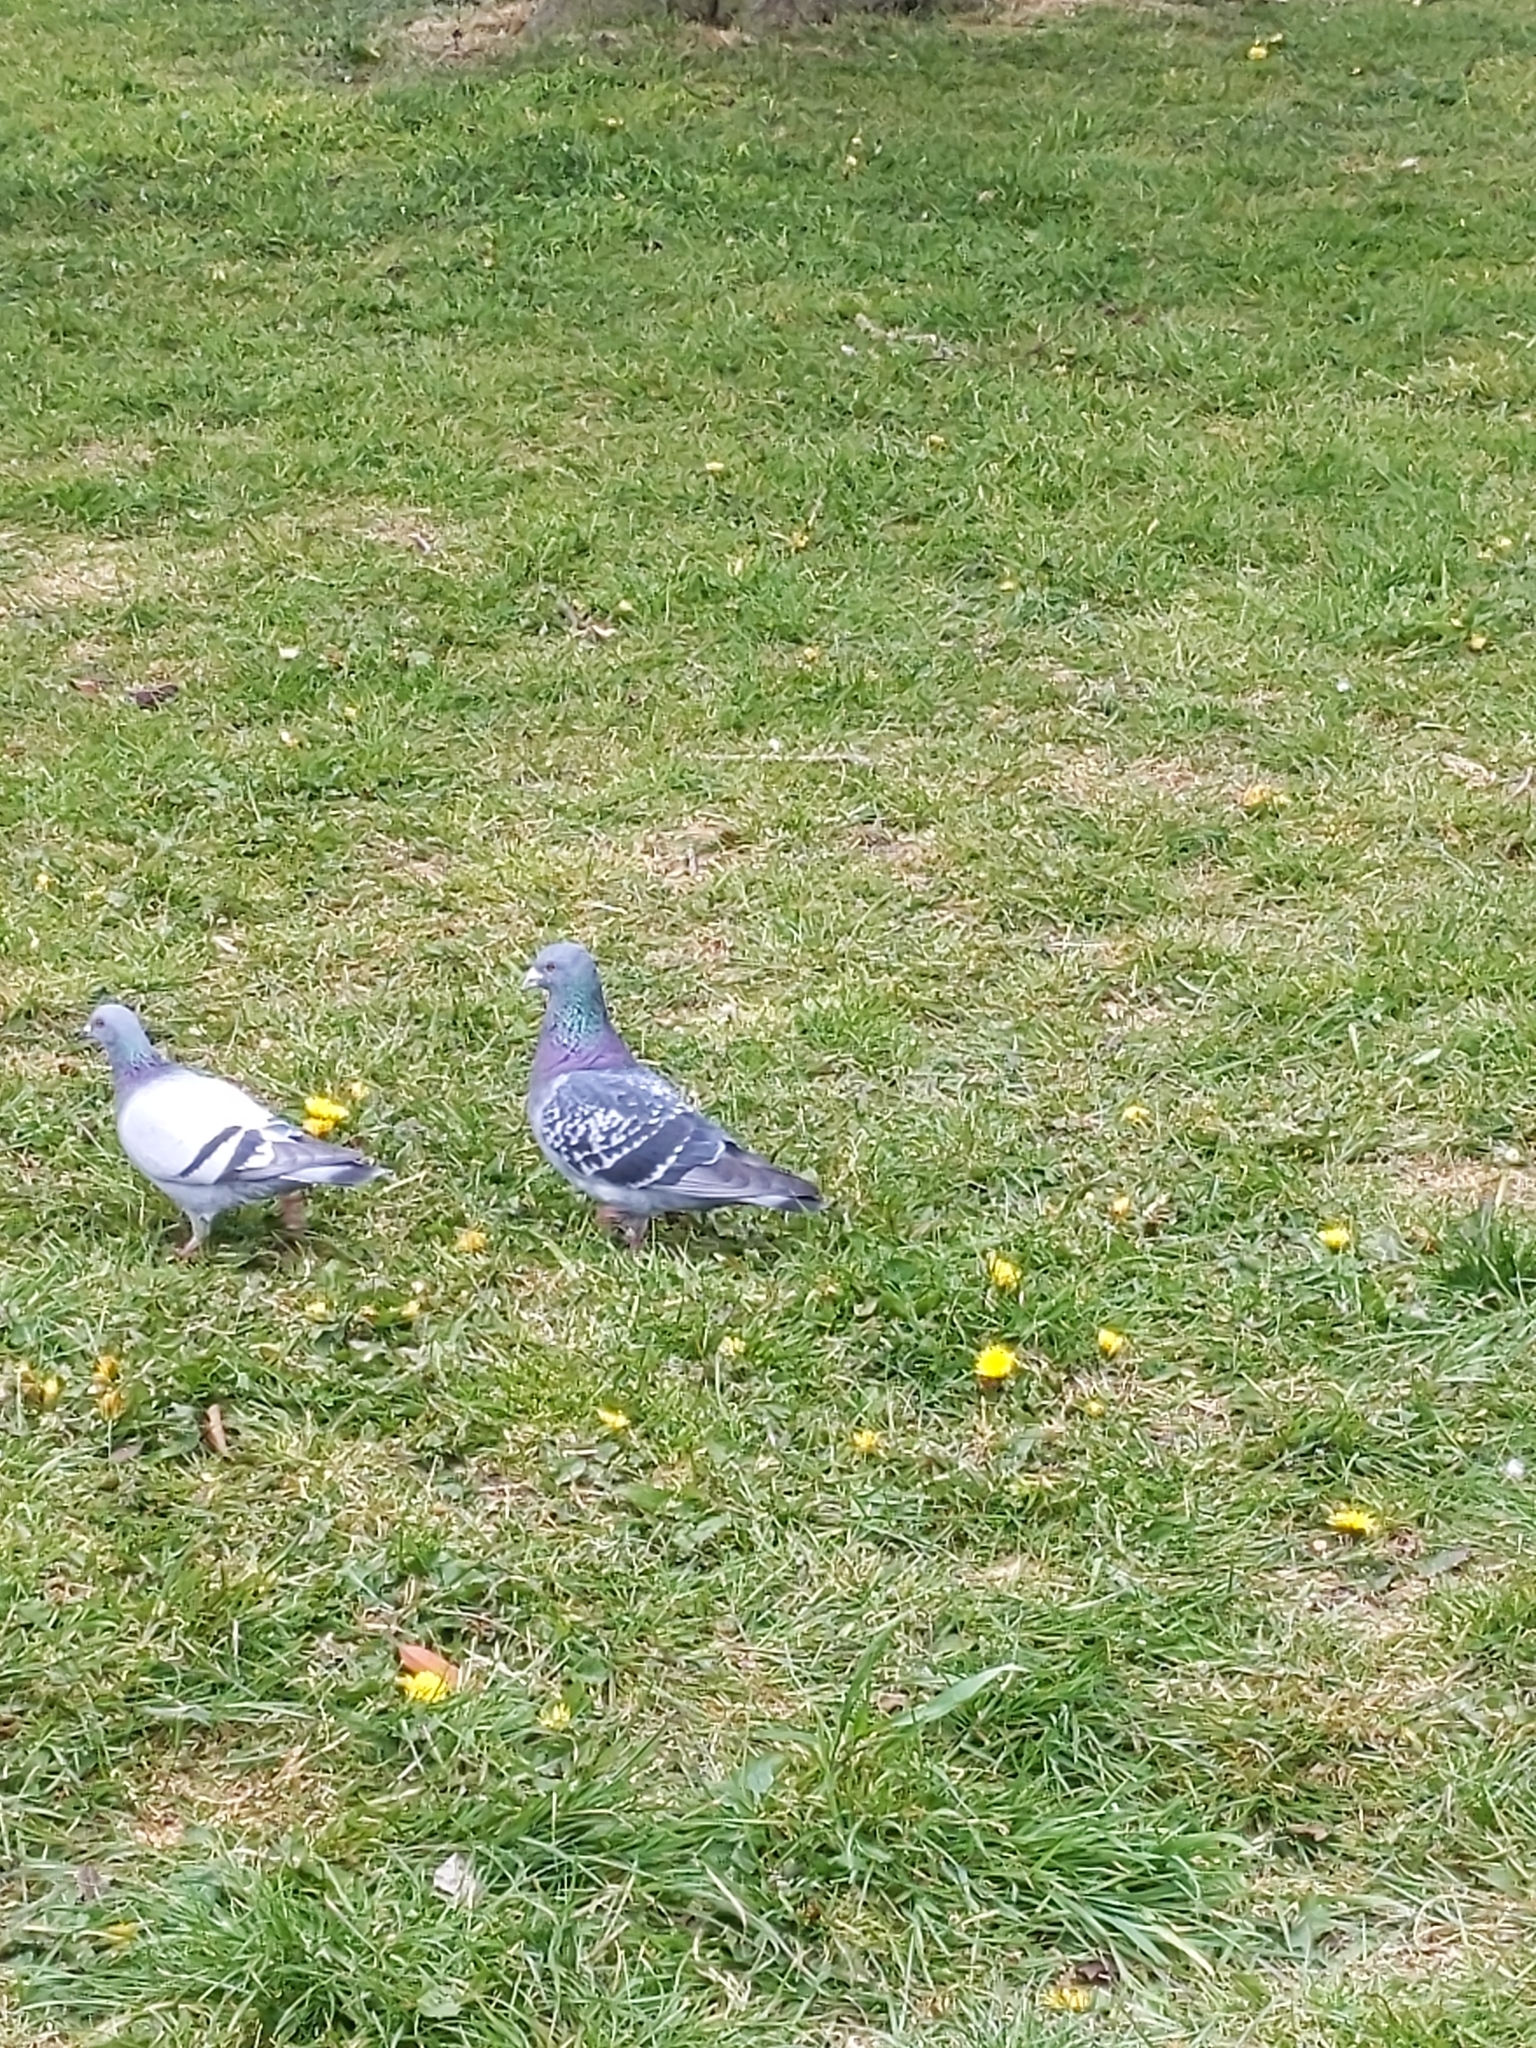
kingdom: Animalia
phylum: Chordata
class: Aves
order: Columbiformes
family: Columbidae
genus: Columba
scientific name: Columba livia
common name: Rock pigeon
